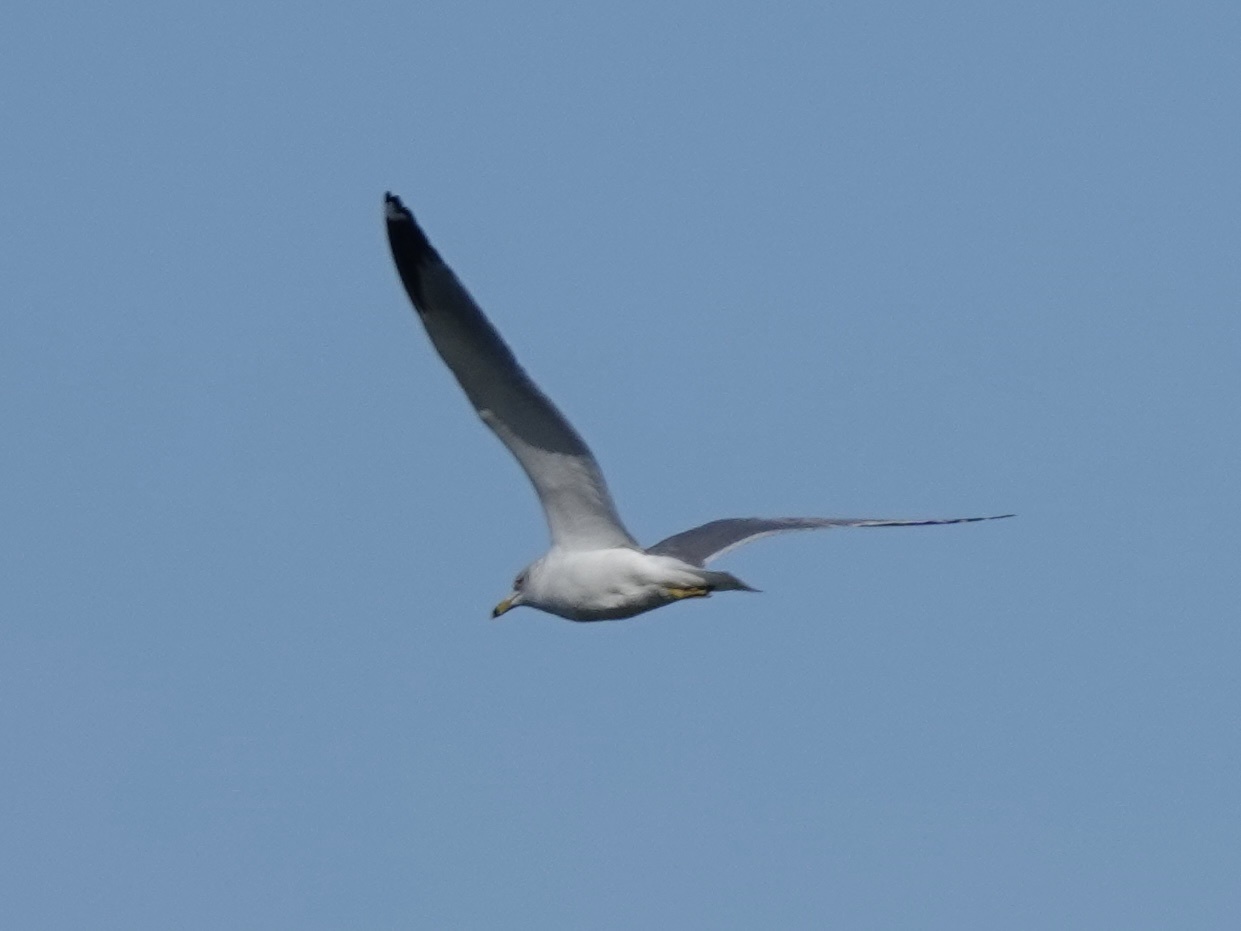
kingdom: Animalia
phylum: Chordata
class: Aves
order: Charadriiformes
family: Laridae
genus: Larus
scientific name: Larus delawarensis
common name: Ring-billed gull
